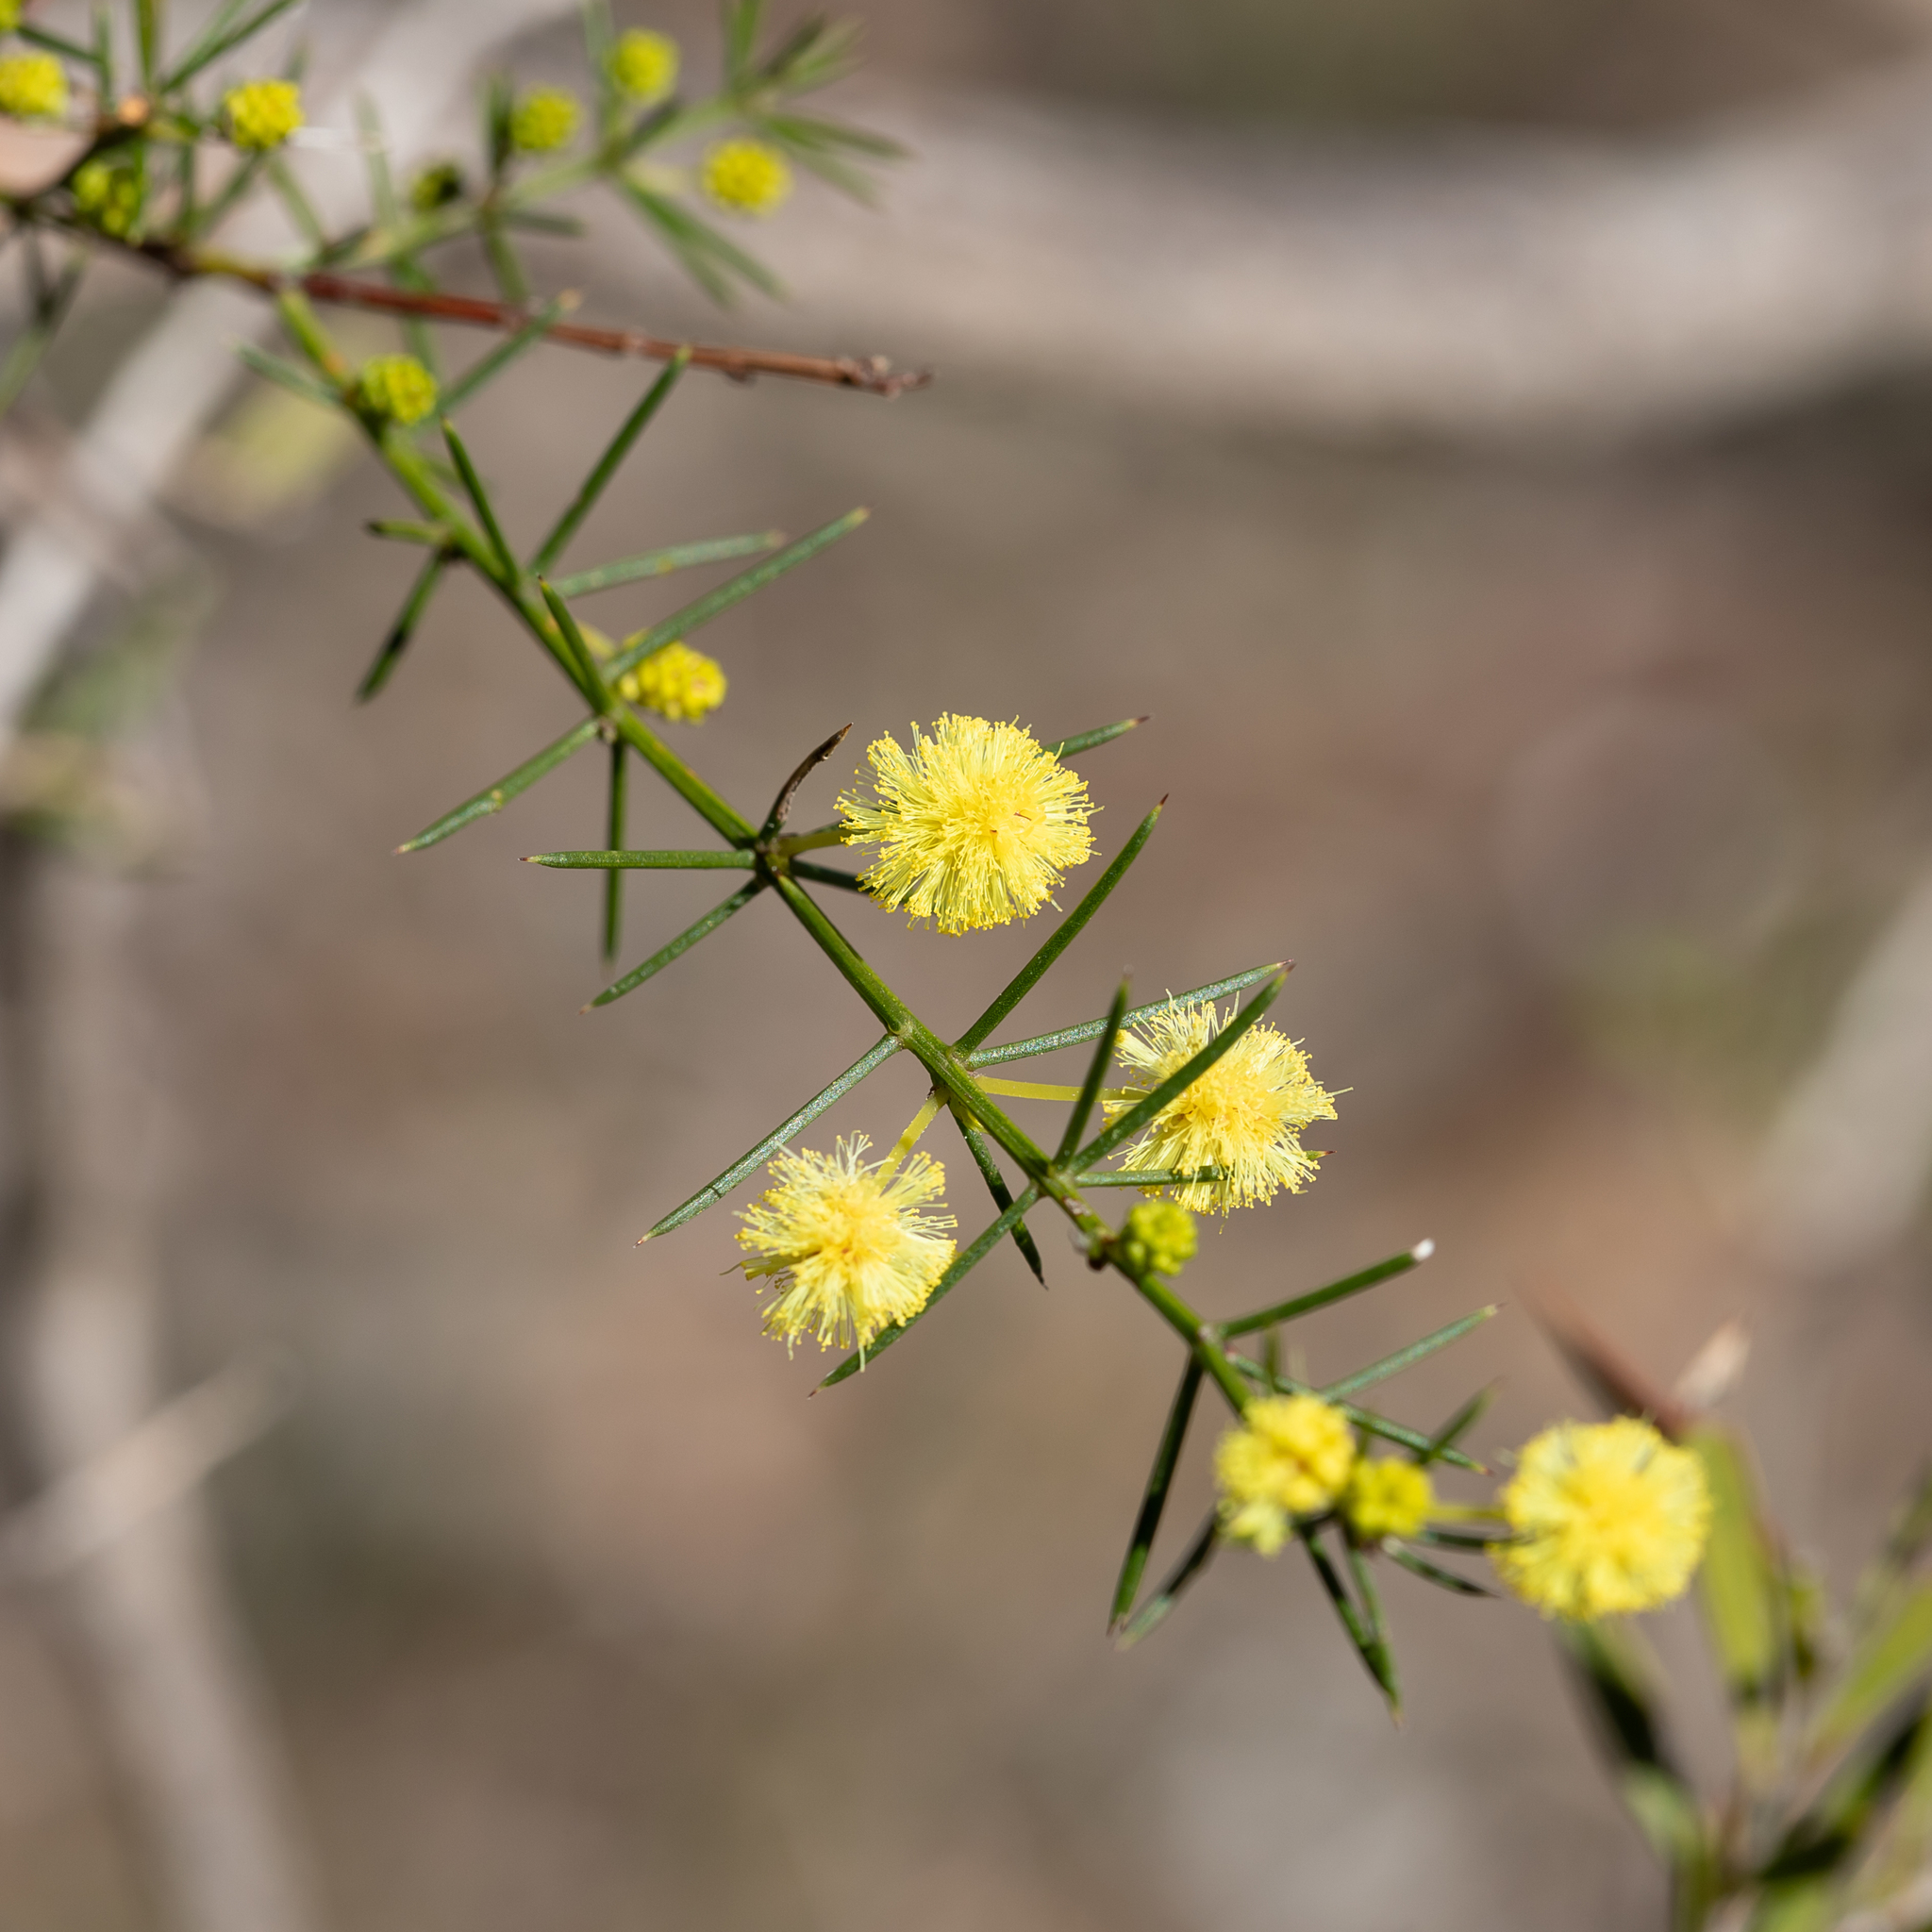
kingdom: Plantae
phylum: Tracheophyta
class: Magnoliopsida
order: Fabales
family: Fabaceae
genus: Acacia
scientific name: Acacia verticillata
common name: Prickly moses
